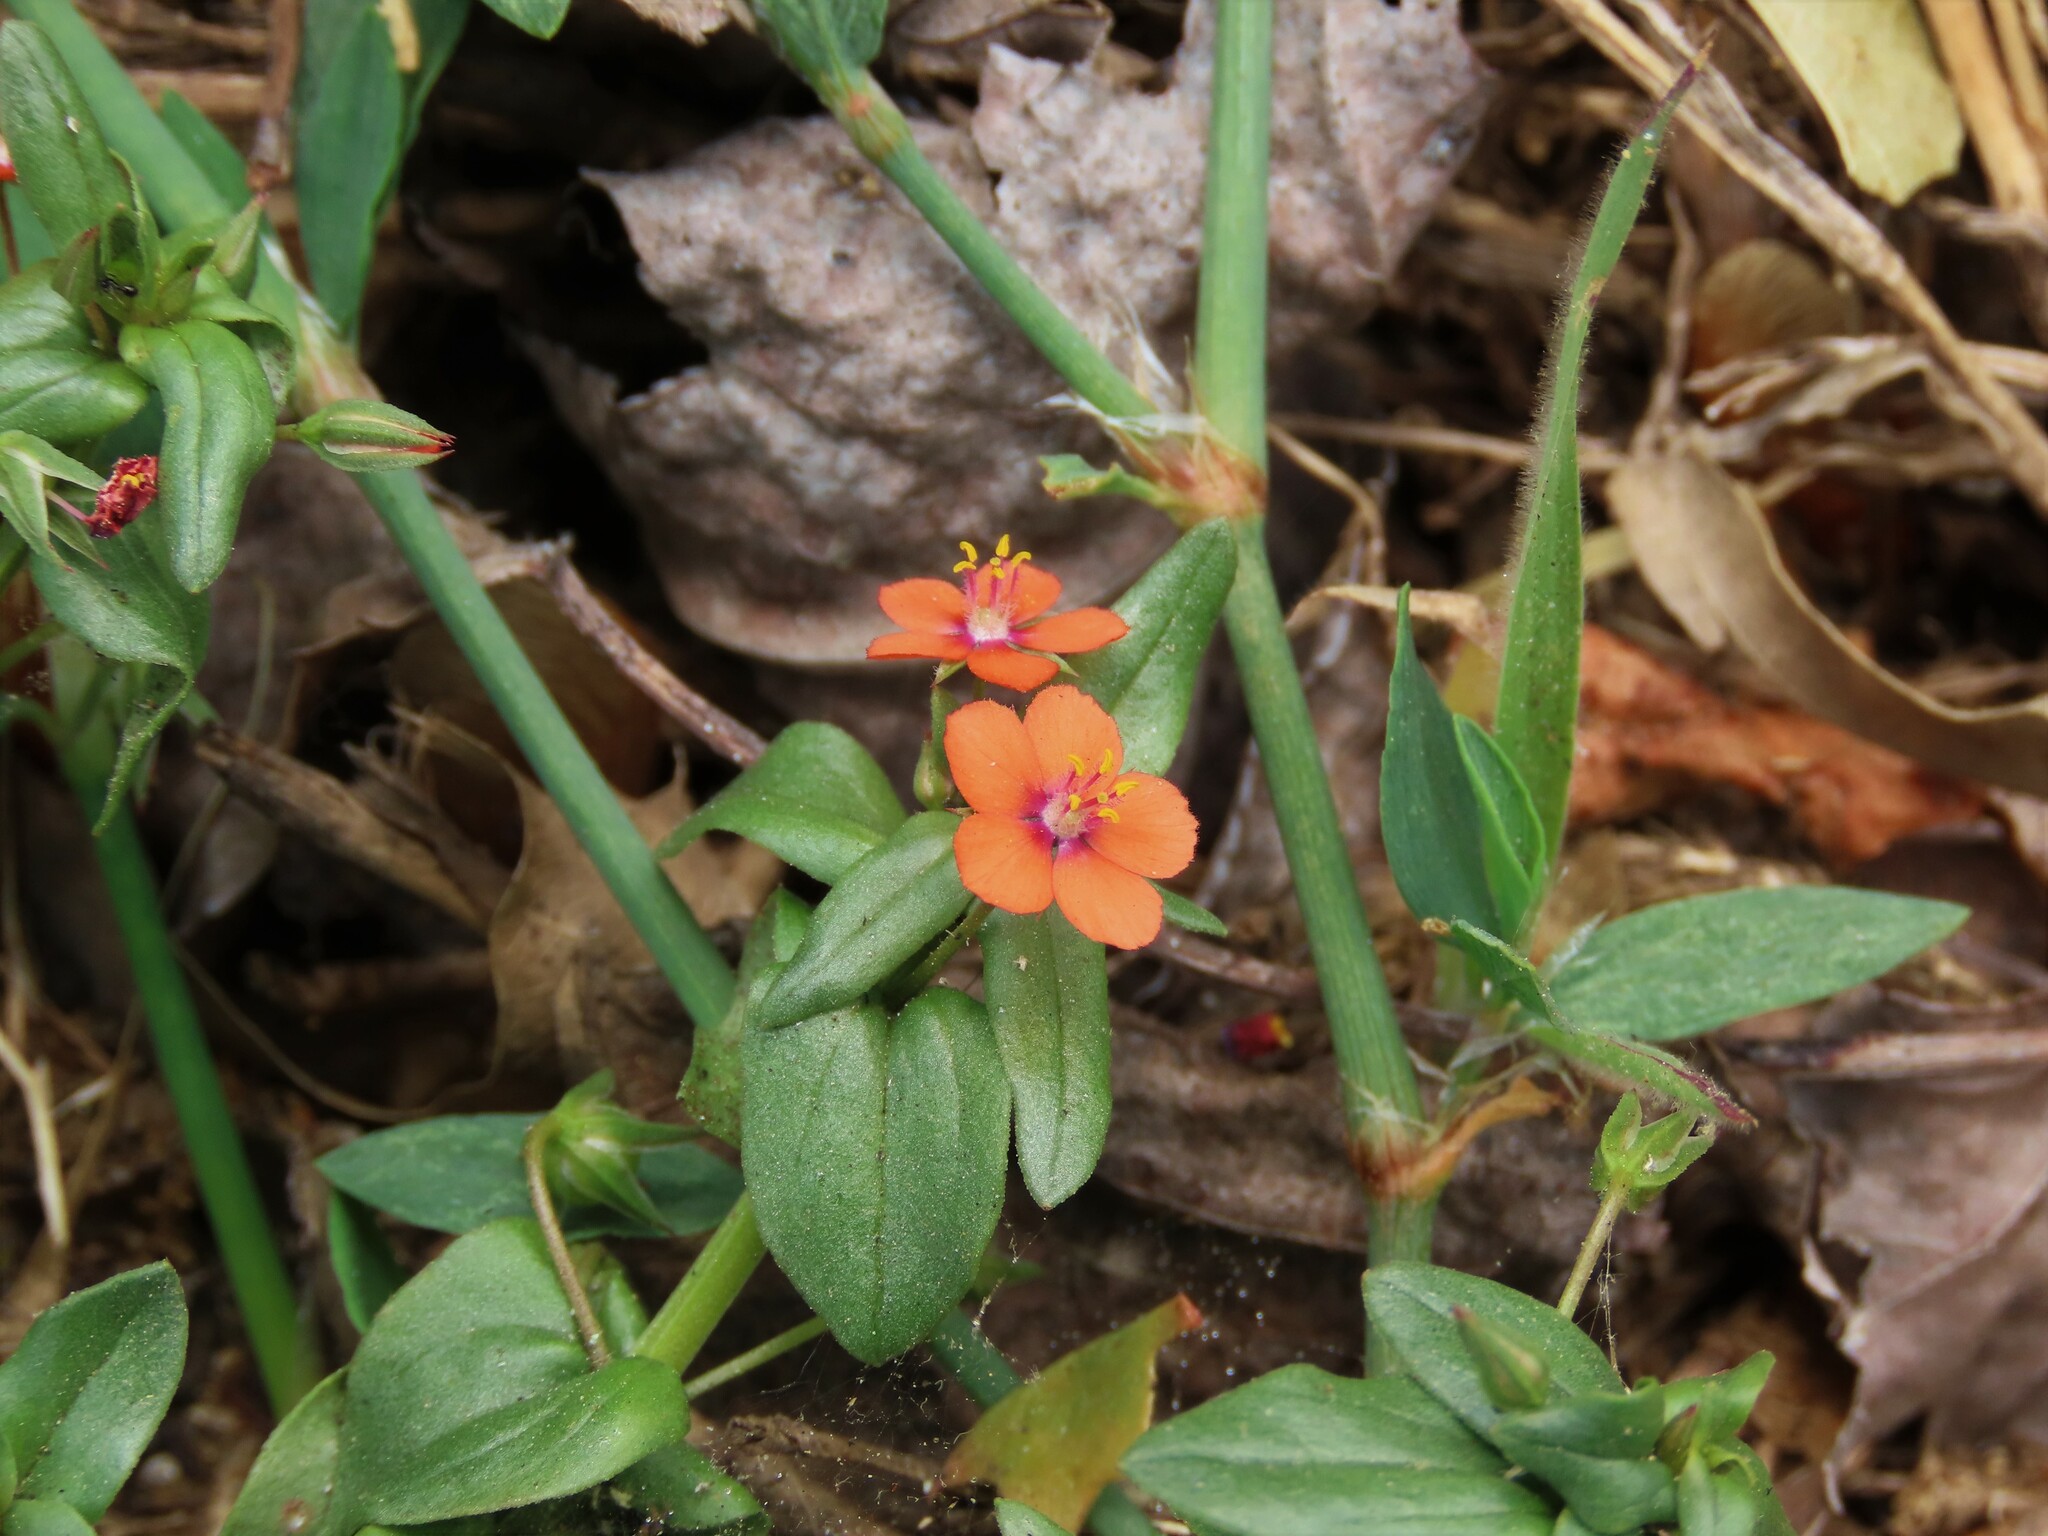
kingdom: Plantae
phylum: Tracheophyta
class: Magnoliopsida
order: Ericales
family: Primulaceae
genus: Lysimachia
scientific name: Lysimachia arvensis
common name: Scarlet pimpernel
